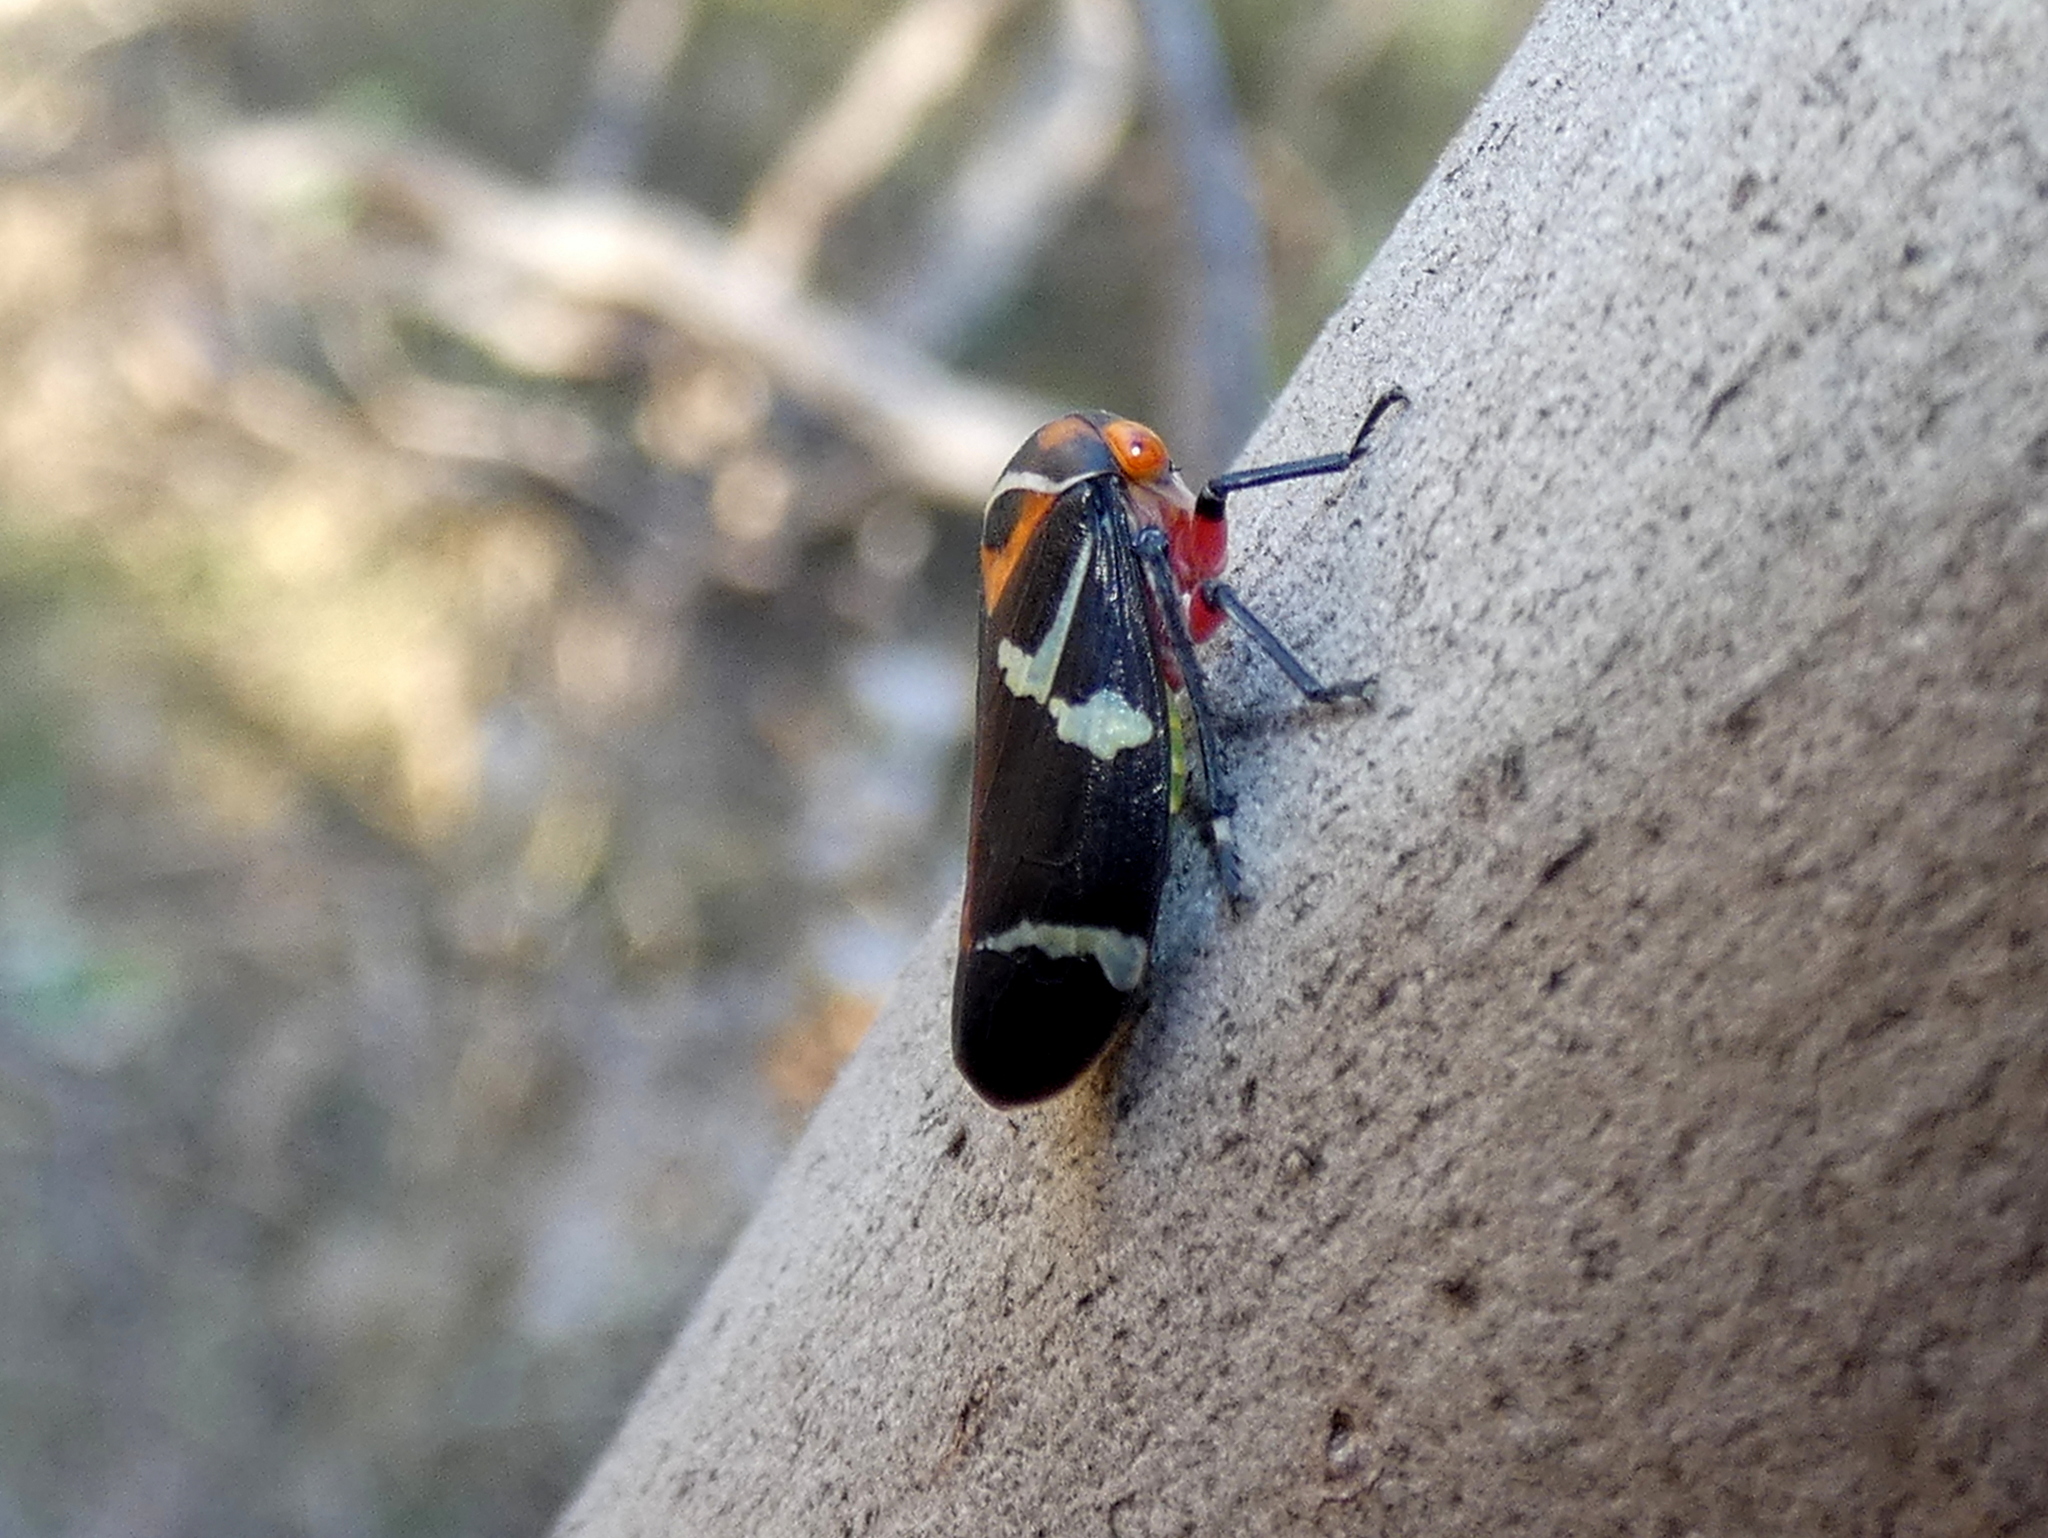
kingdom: Animalia
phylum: Arthropoda
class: Insecta
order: Hemiptera
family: Cicadellidae
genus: Eurymeloides
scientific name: Eurymeloides pulchra
